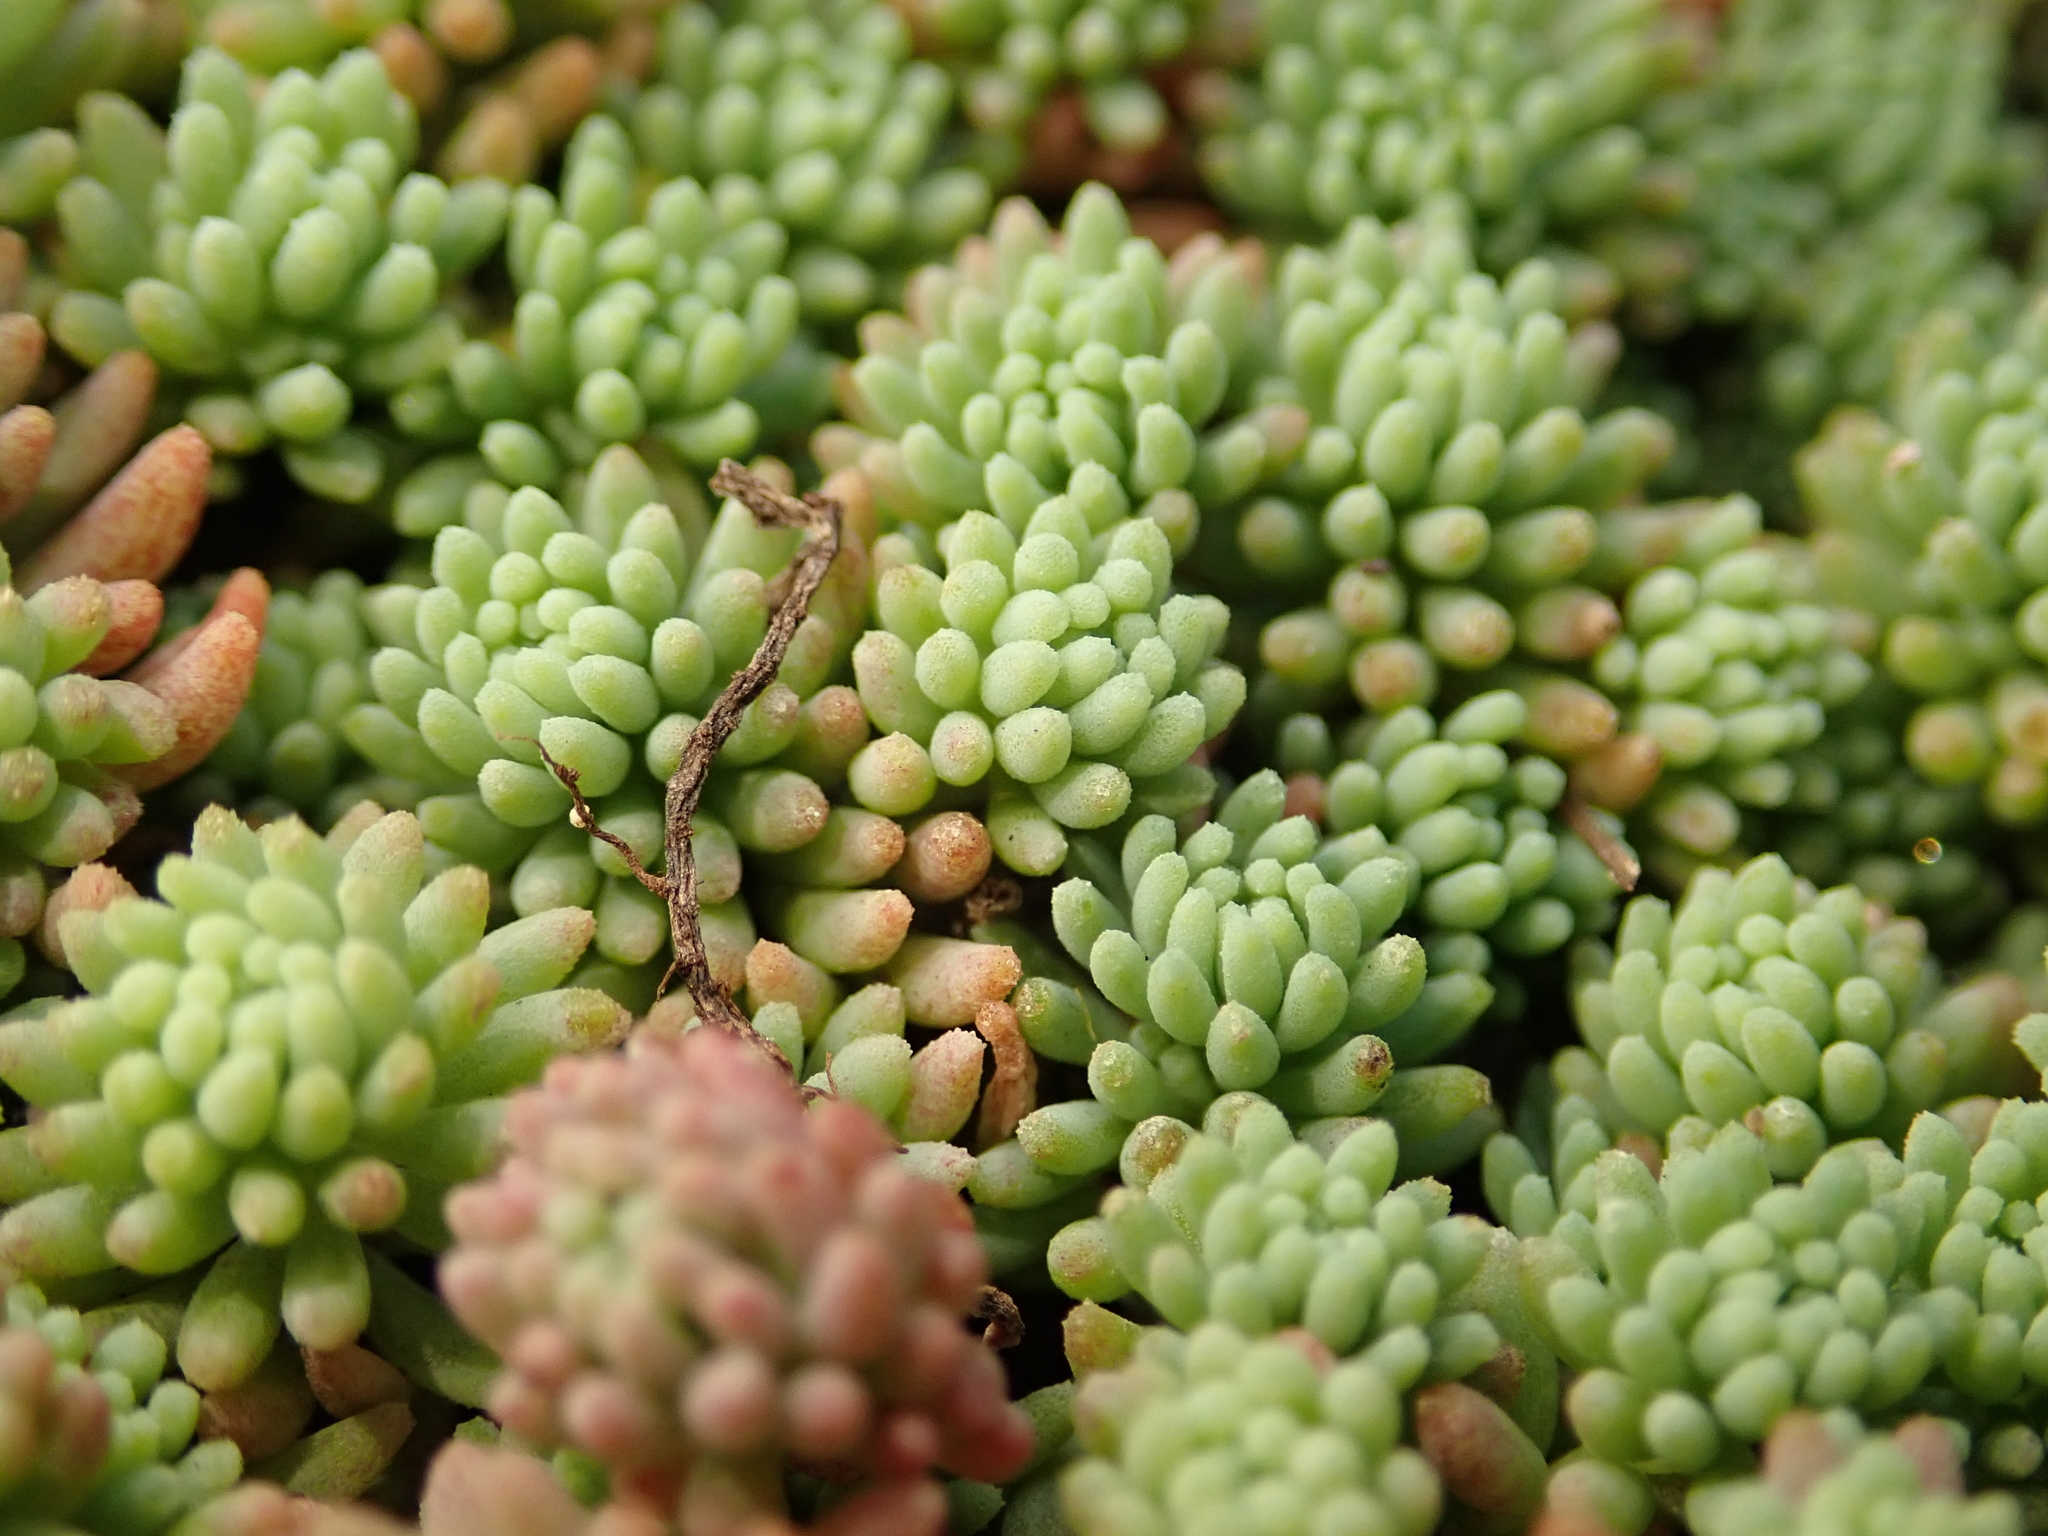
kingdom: Plantae
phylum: Tracheophyta
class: Magnoliopsida
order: Saxifragales
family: Crassulaceae
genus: Sedum
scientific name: Sedum hispanicum
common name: Spanish stonecrop
